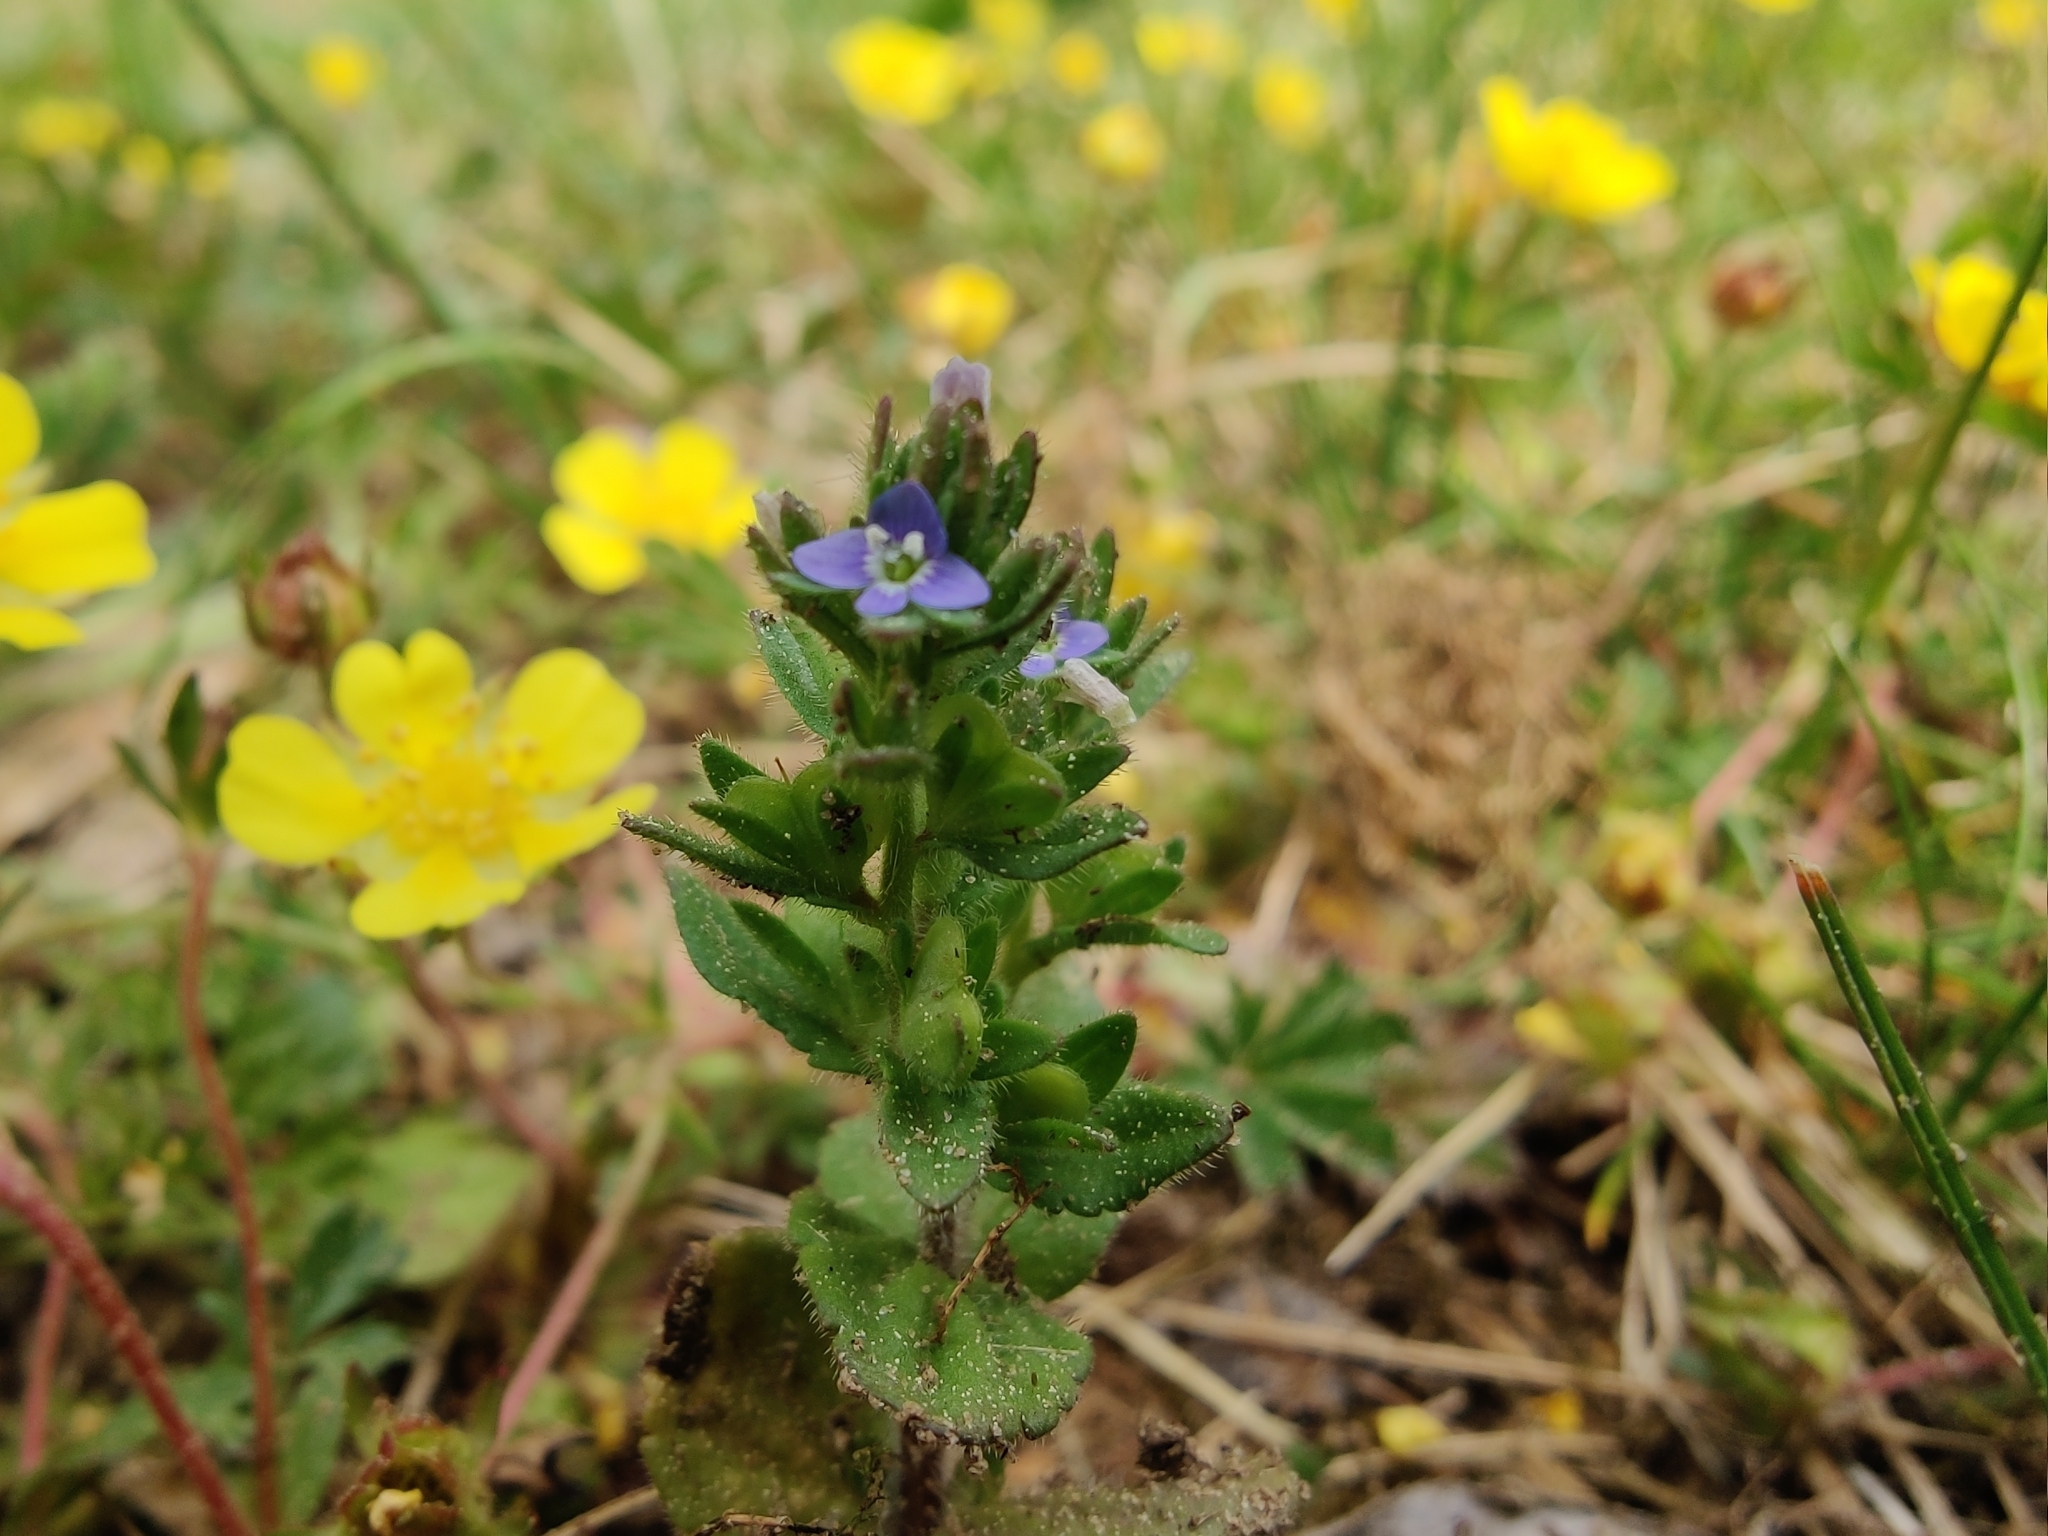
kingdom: Plantae
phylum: Tracheophyta
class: Magnoliopsida
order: Lamiales
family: Plantaginaceae
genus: Veronica
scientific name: Veronica arvensis
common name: Corn speedwell
